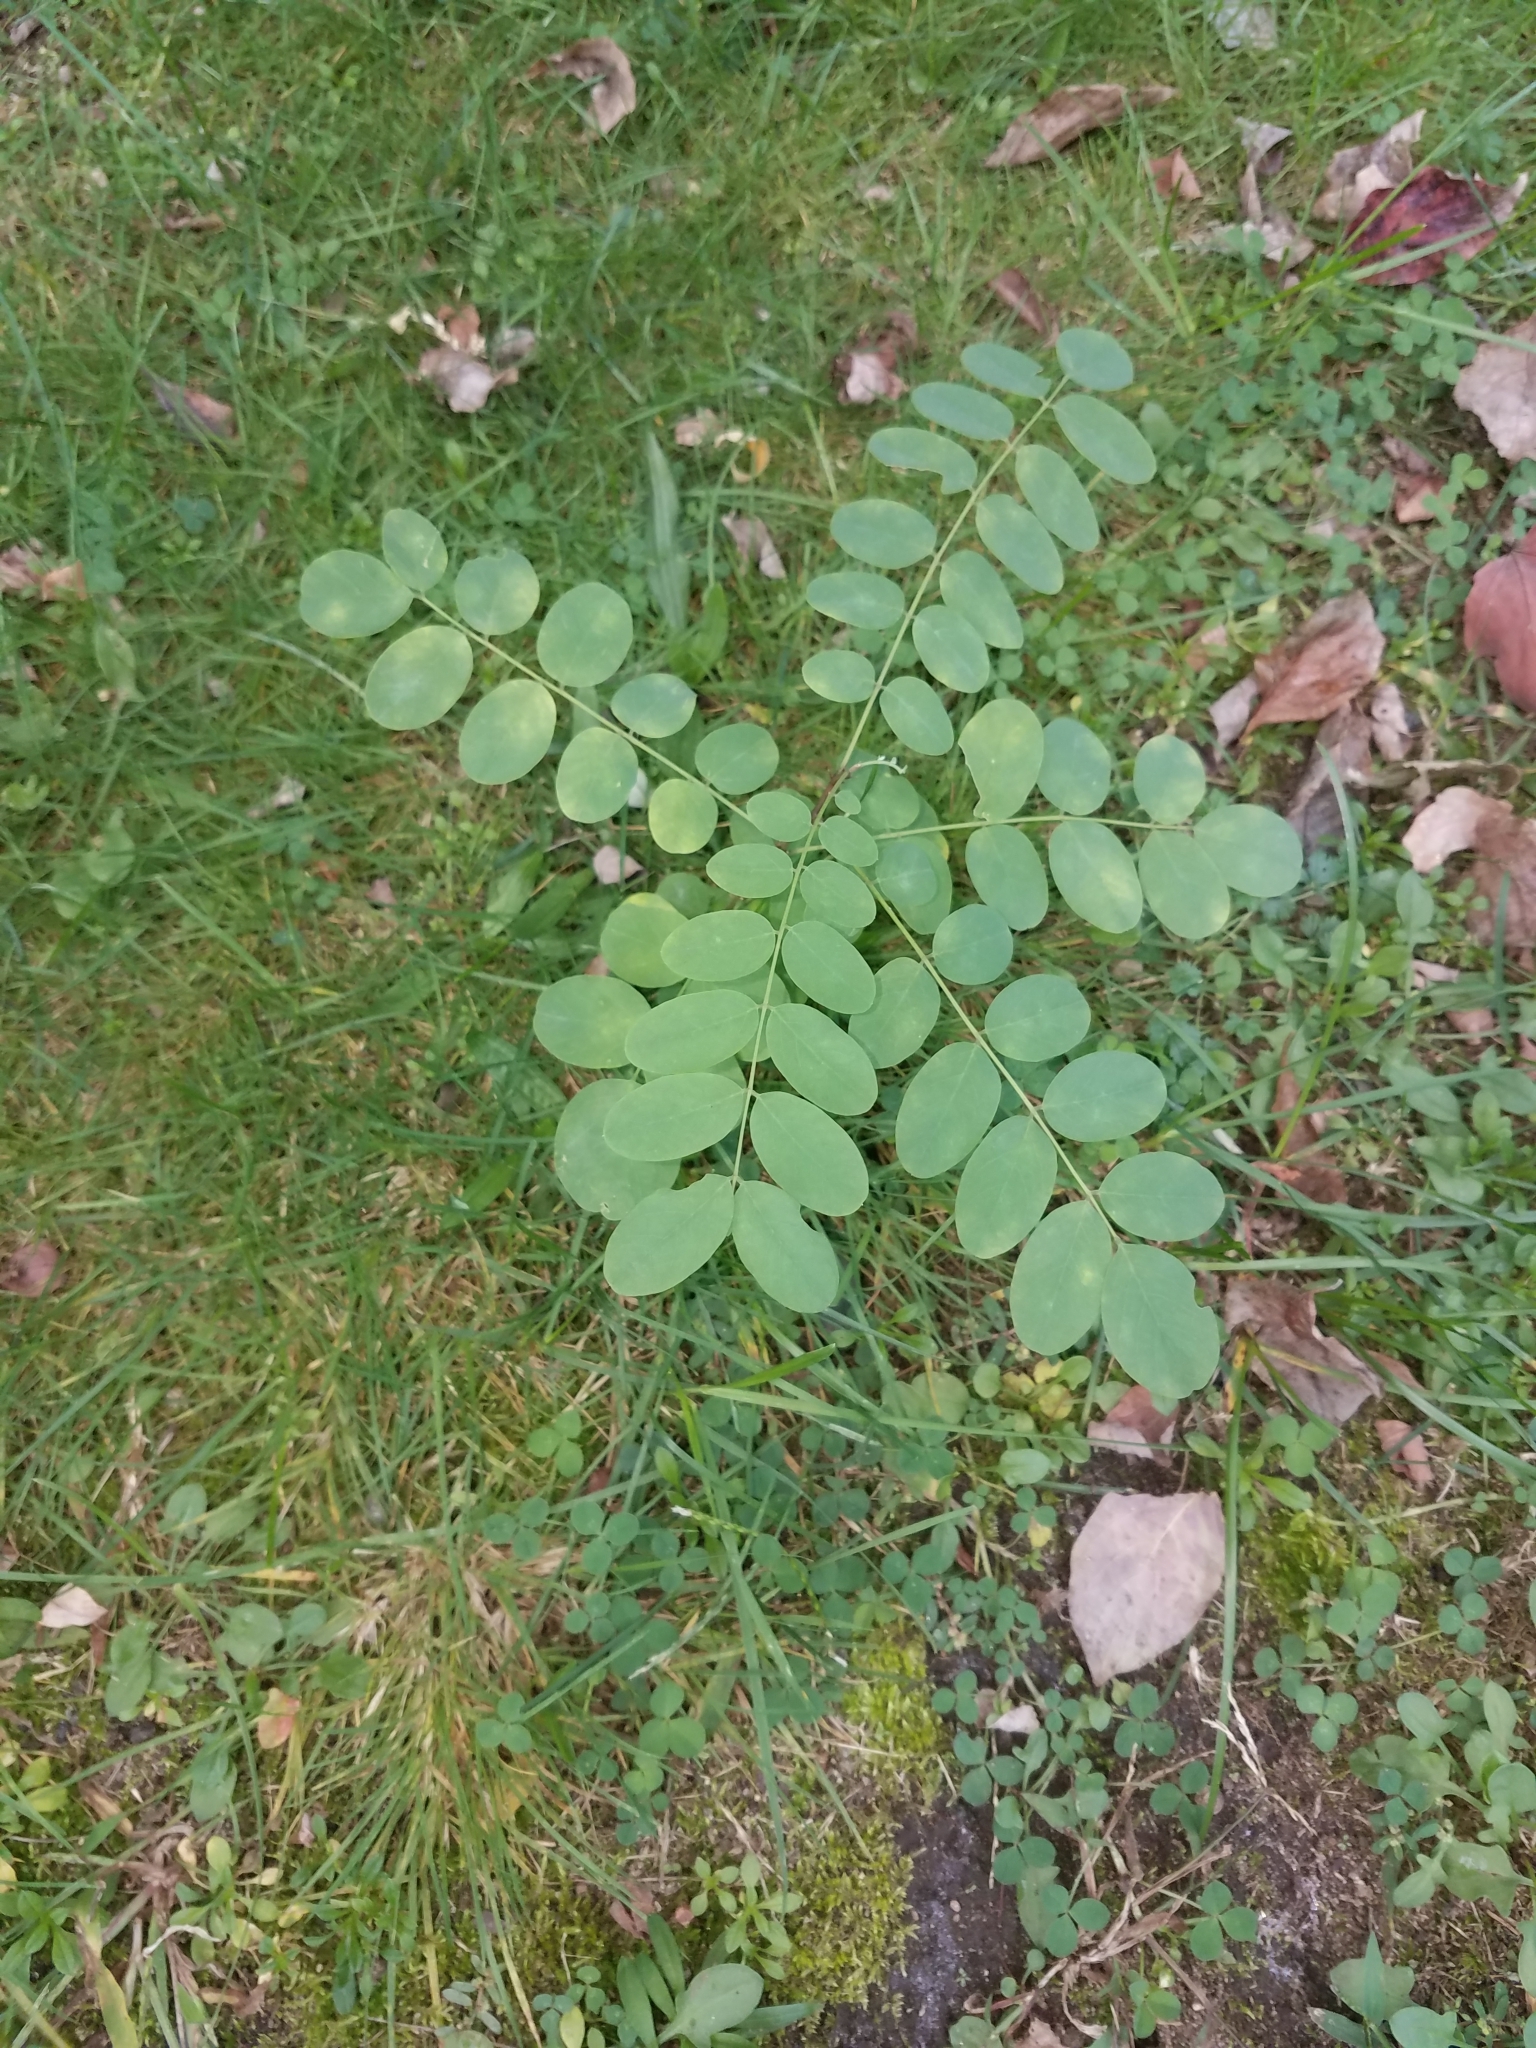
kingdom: Plantae
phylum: Tracheophyta
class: Magnoliopsida
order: Fabales
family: Fabaceae
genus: Robinia
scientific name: Robinia pseudoacacia
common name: Black locust
